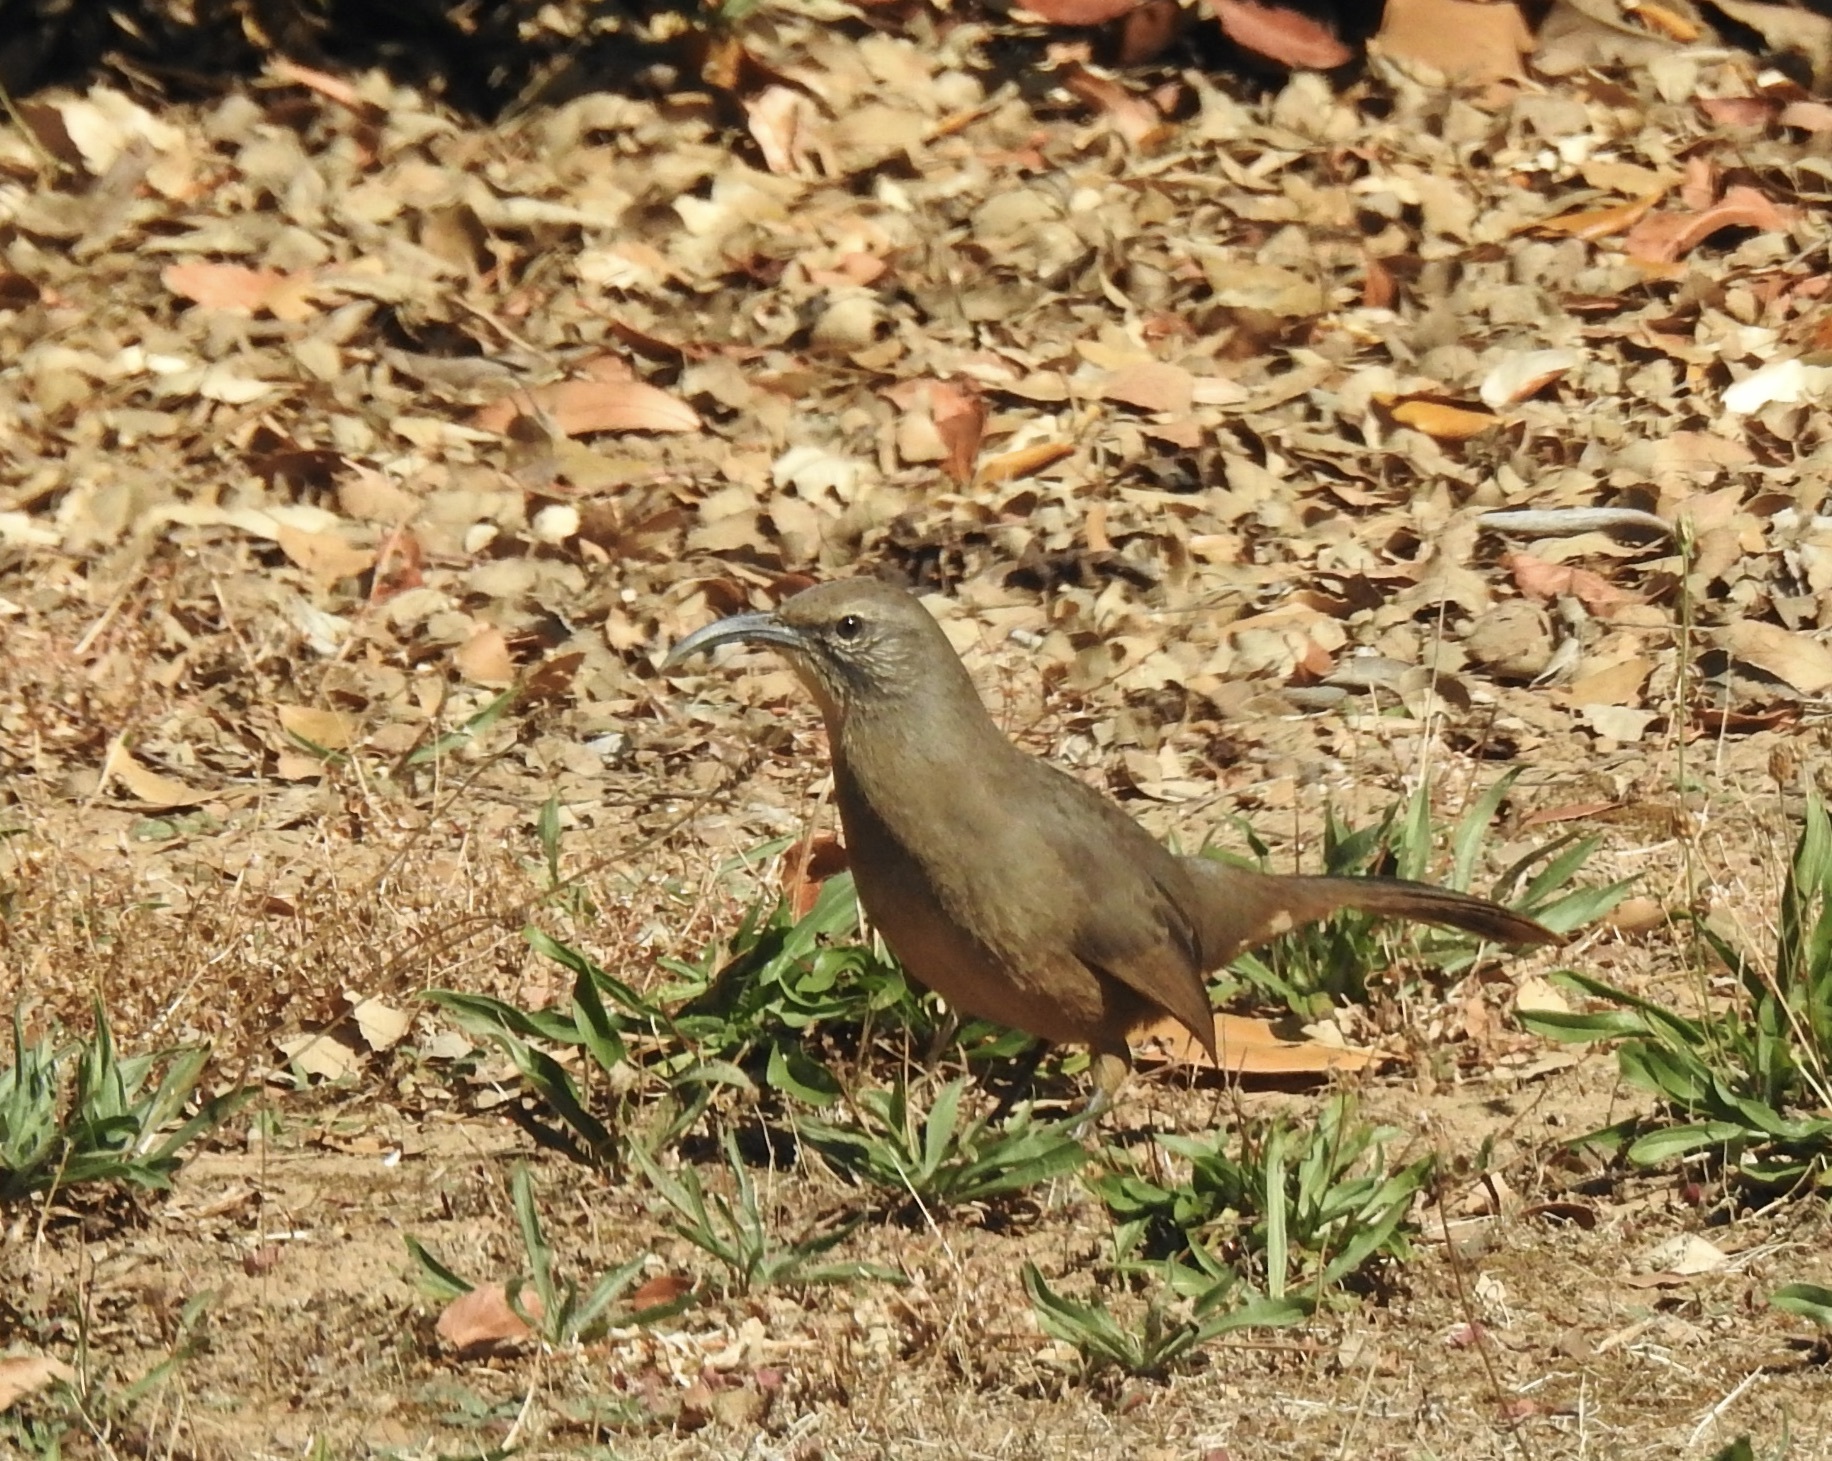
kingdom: Animalia
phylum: Chordata
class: Aves
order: Passeriformes
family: Mimidae
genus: Toxostoma
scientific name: Toxostoma redivivum
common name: California thrasher
